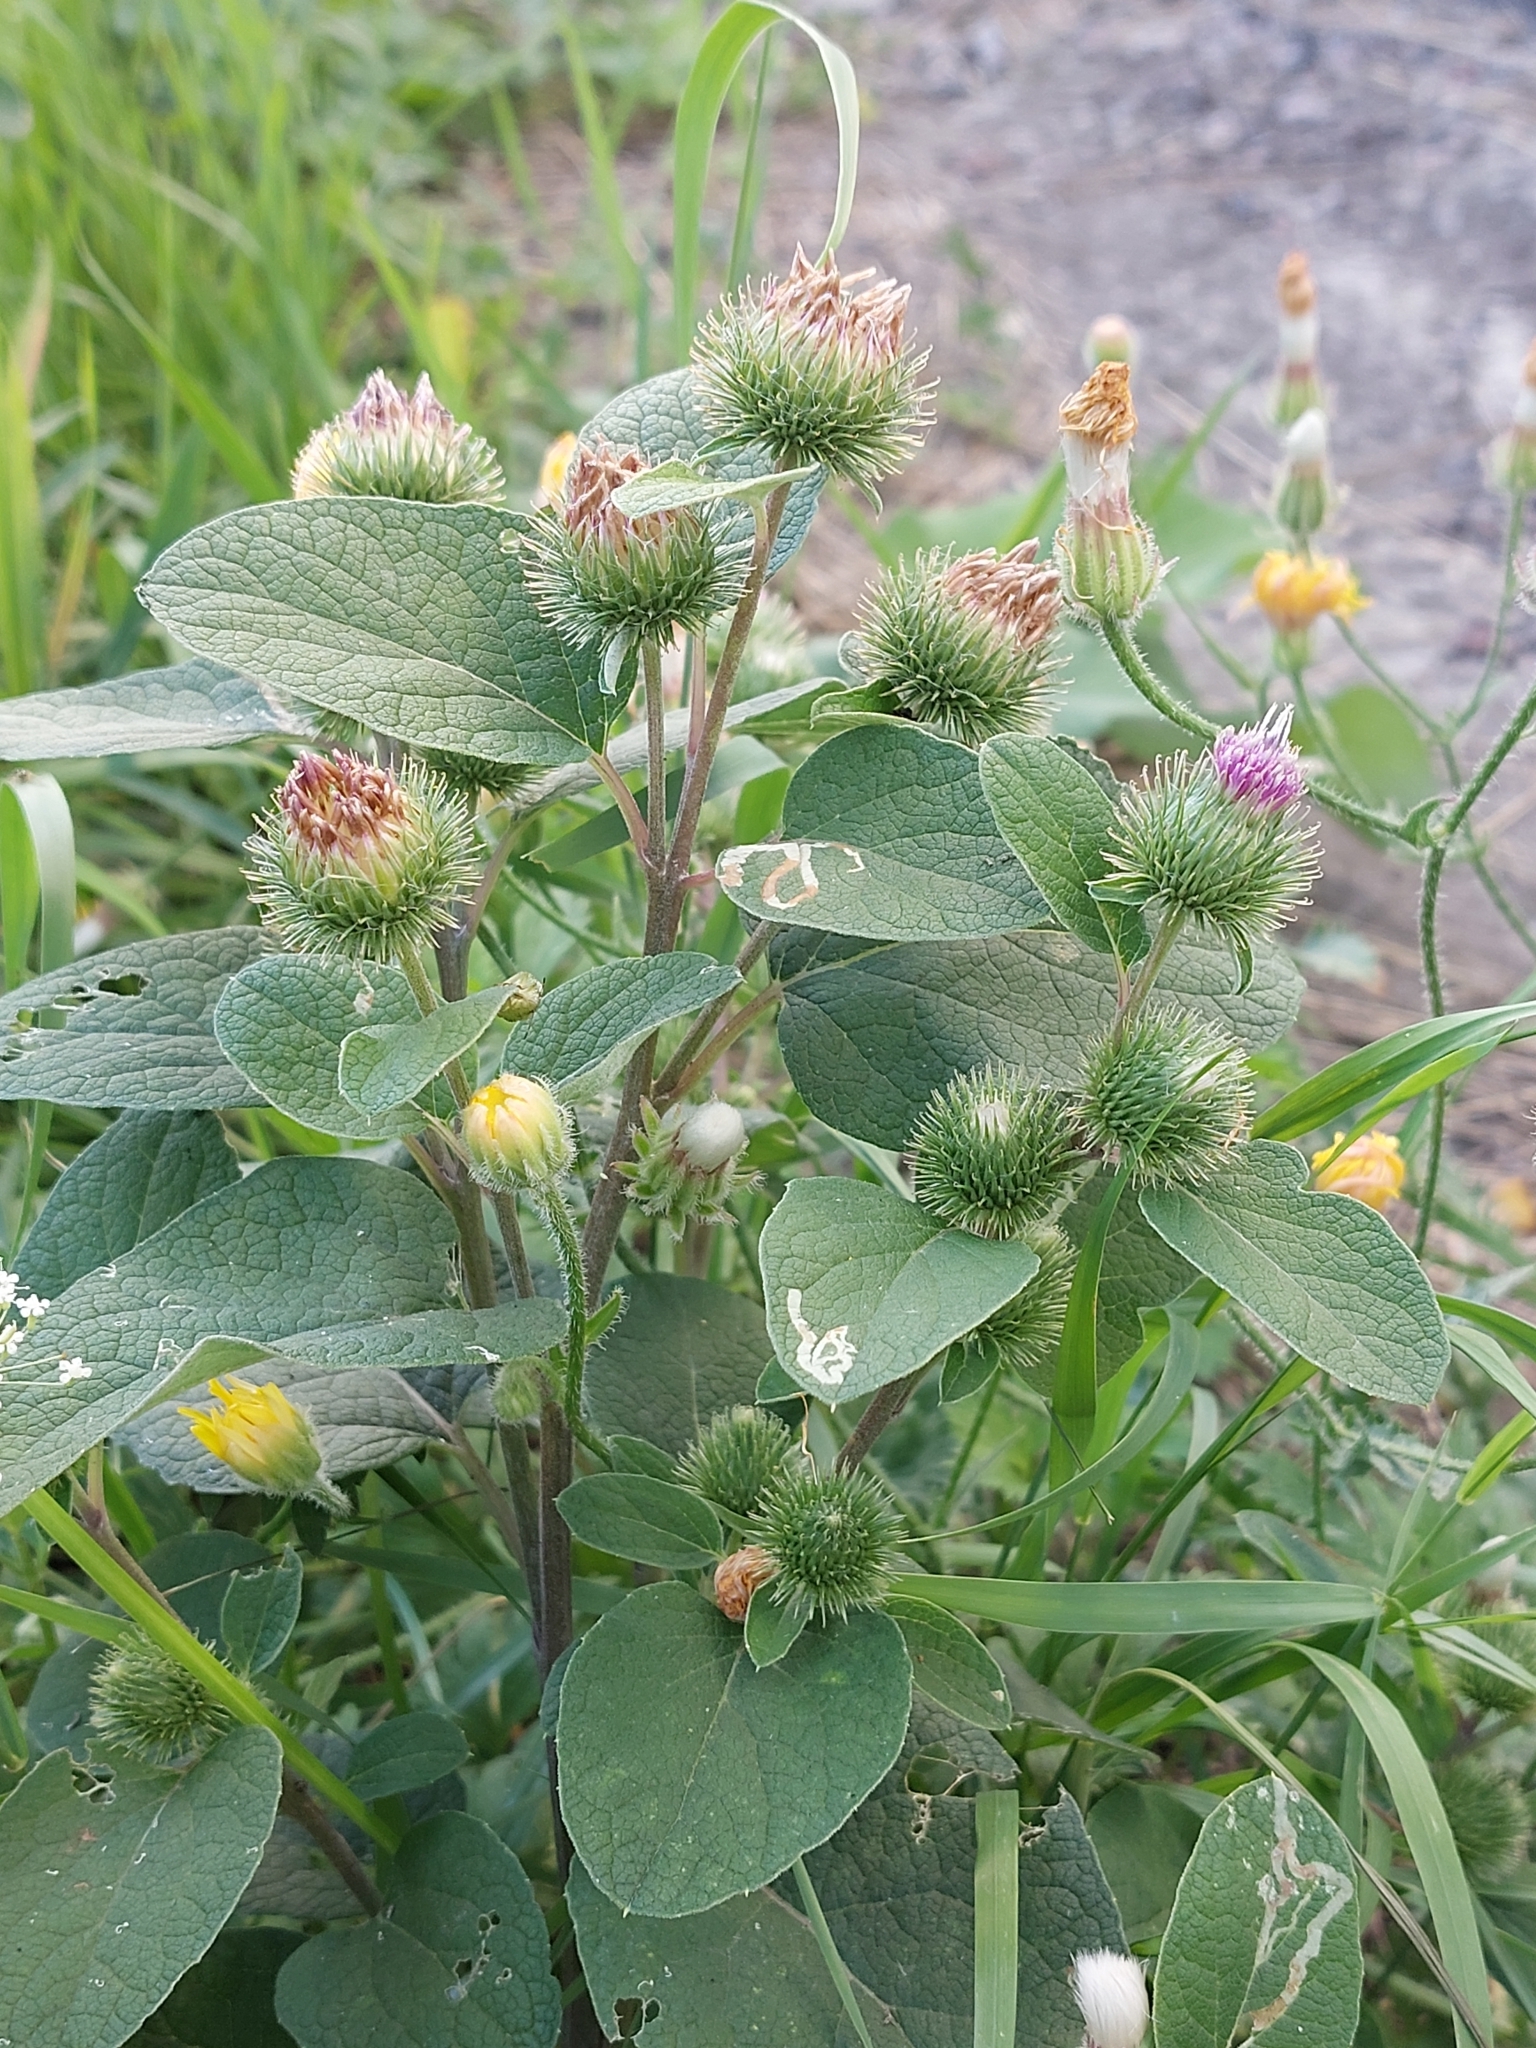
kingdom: Plantae
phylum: Tracheophyta
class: Magnoliopsida
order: Asterales
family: Asteraceae
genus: Arctium
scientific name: Arctium nothum
